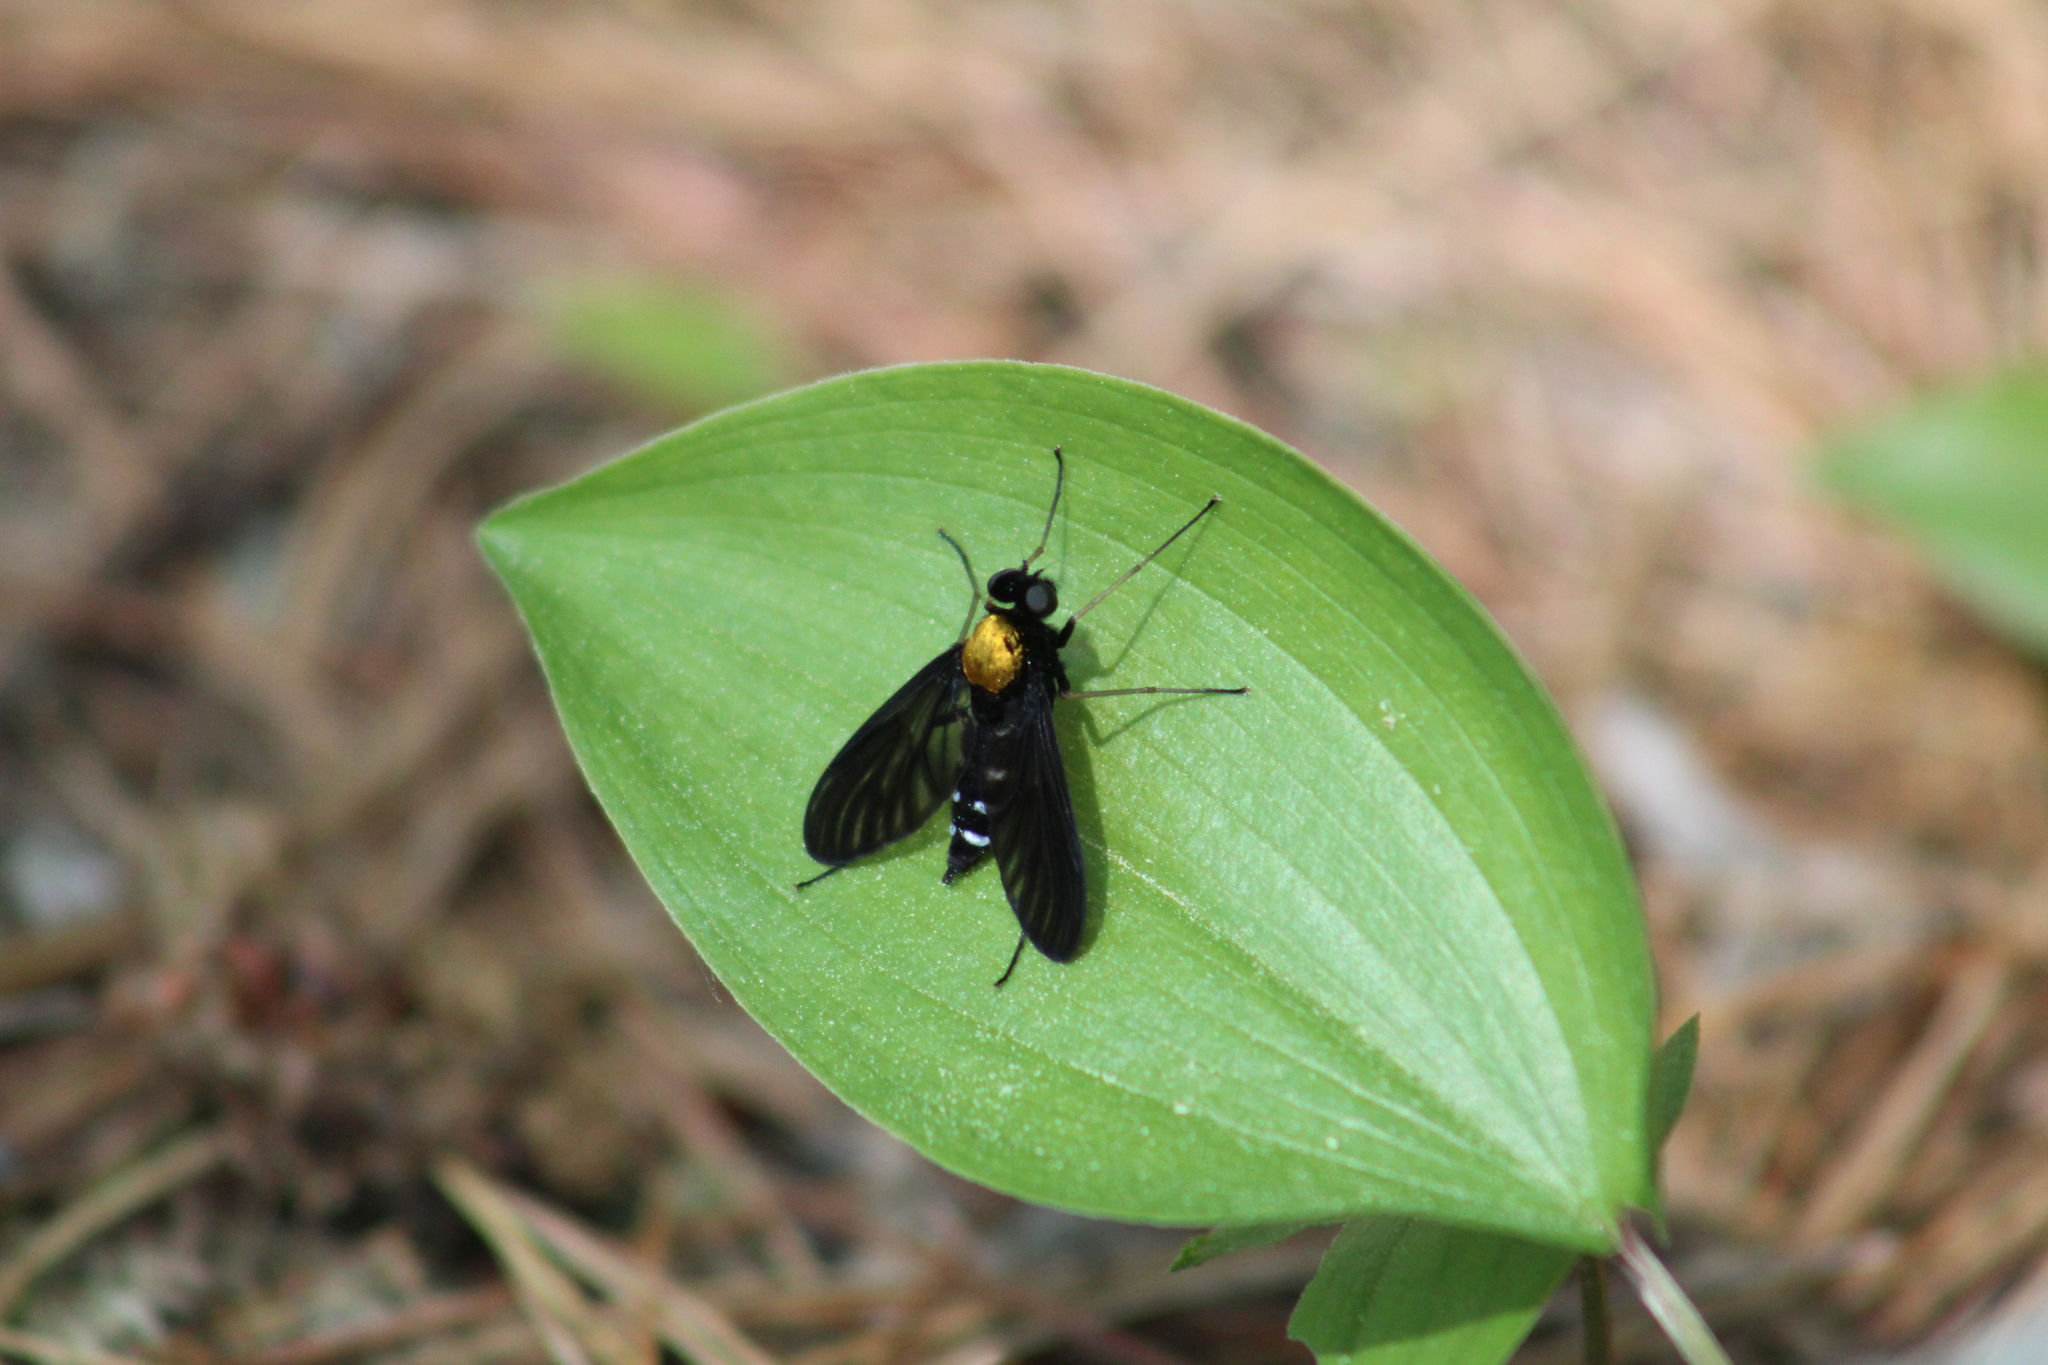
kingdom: Animalia
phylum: Arthropoda
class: Insecta
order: Diptera
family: Rhagionidae
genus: Chrysopilus
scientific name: Chrysopilus thoracicus
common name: Golden-backed snipe fly
